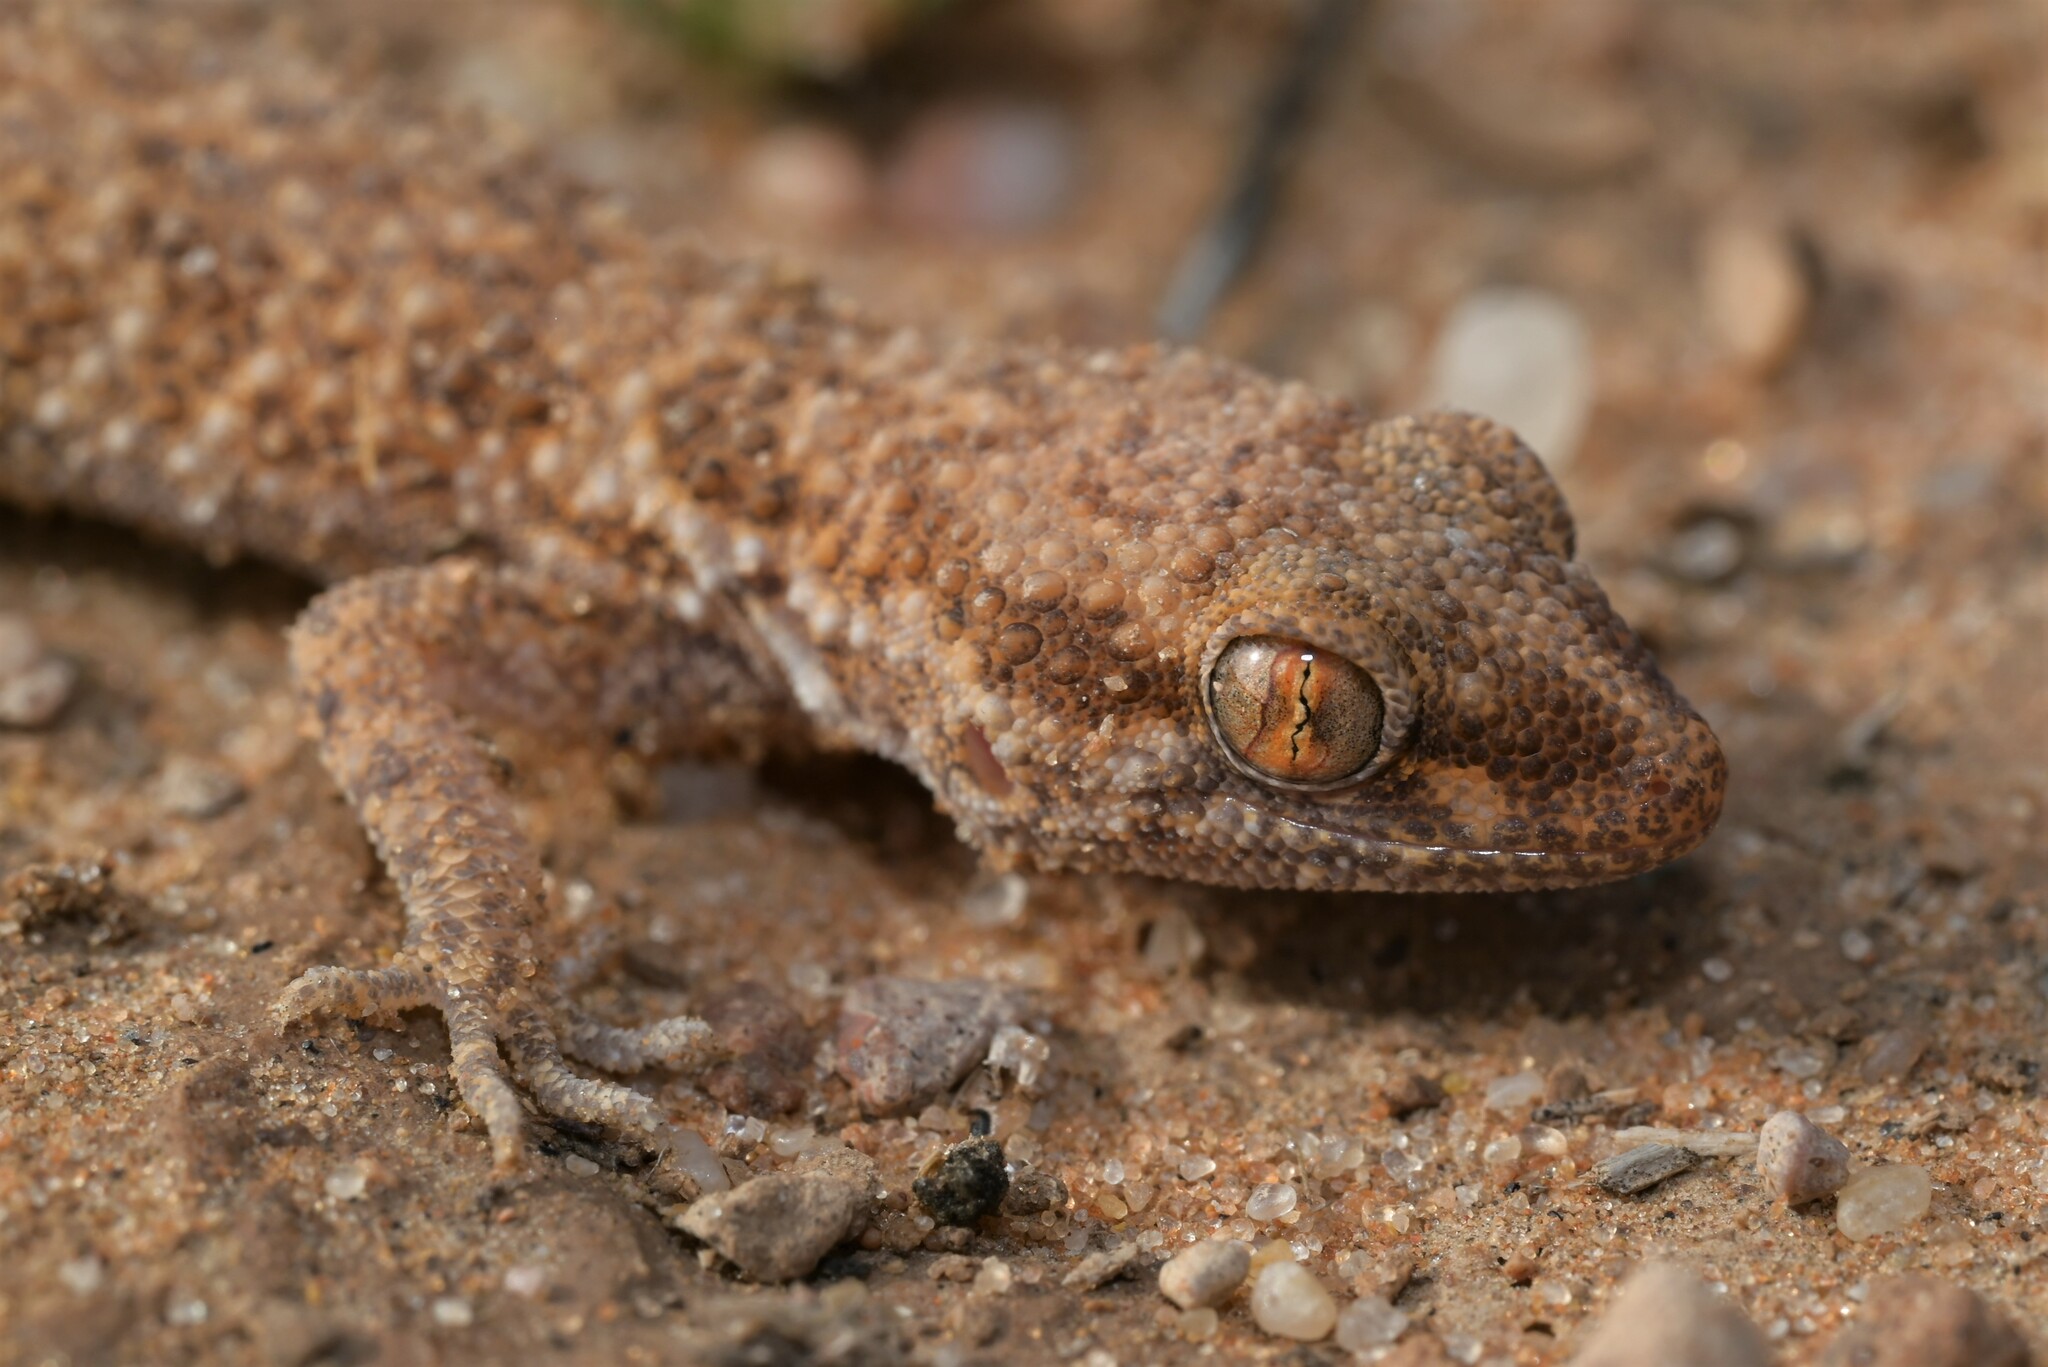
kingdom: Animalia
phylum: Chordata
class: Squamata
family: Gekkonidae
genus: Bunopus
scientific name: Bunopus tuberculatus
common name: Southern tuberculated gecko
